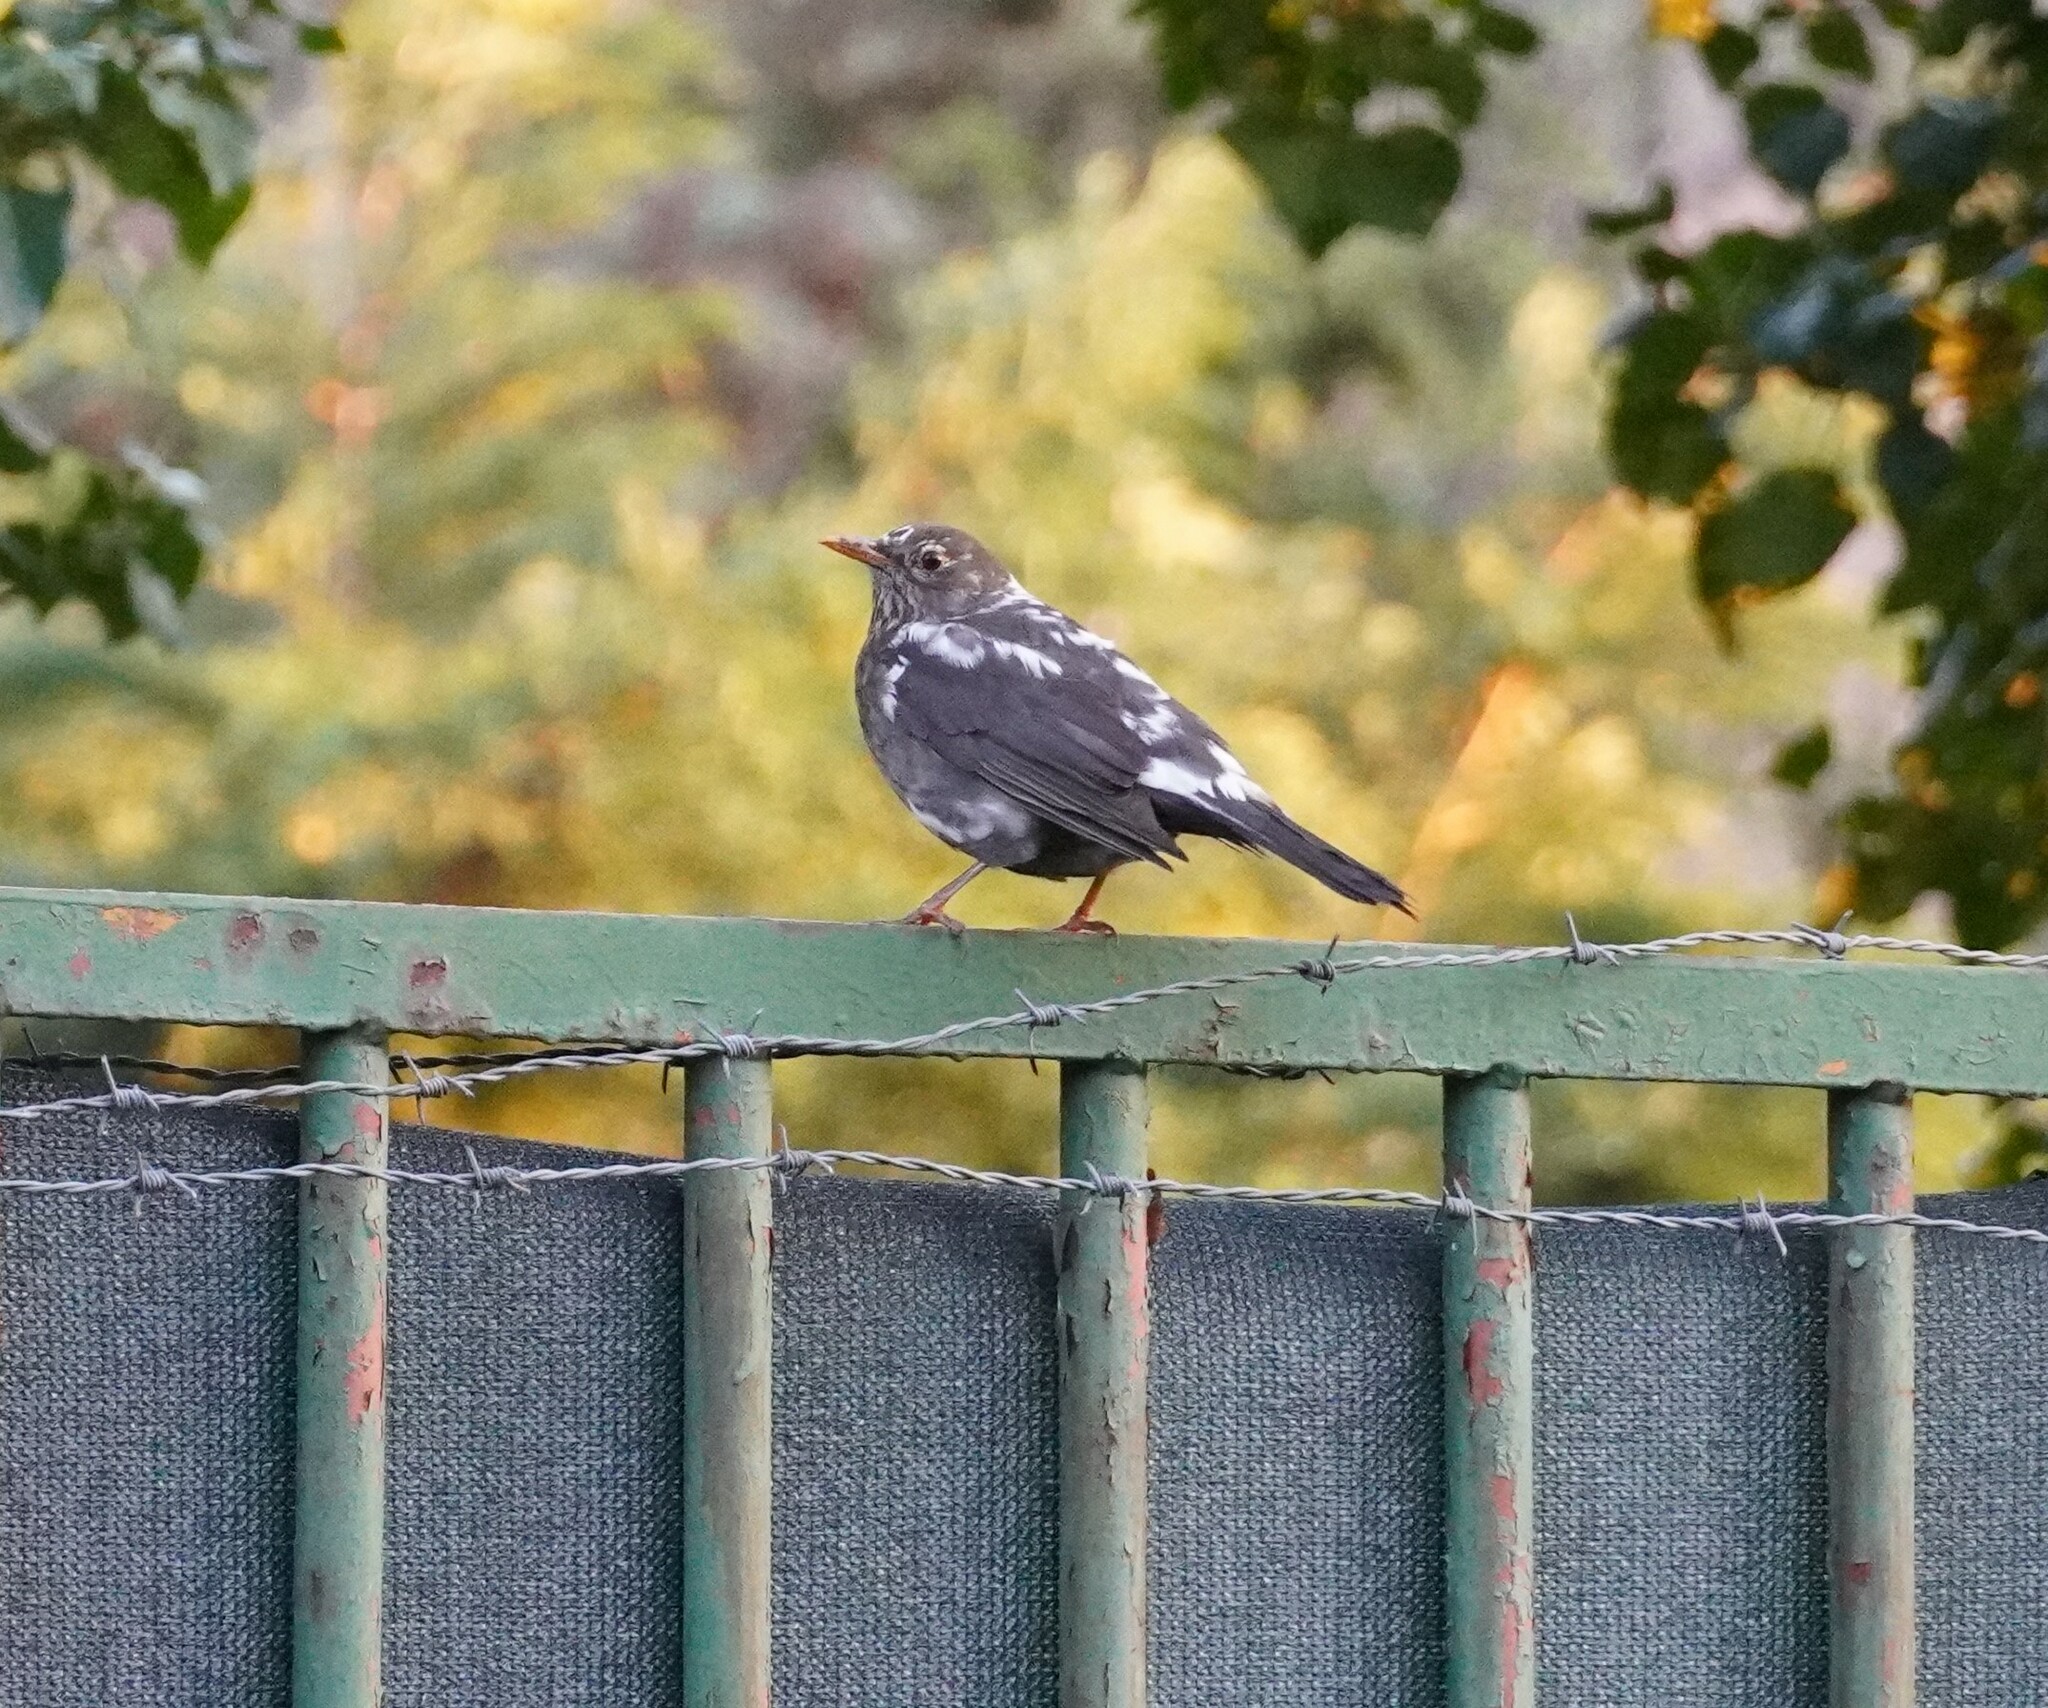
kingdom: Animalia
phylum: Chordata
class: Aves
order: Passeriformes
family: Turdidae
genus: Turdus
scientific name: Turdus merula
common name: Common blackbird
